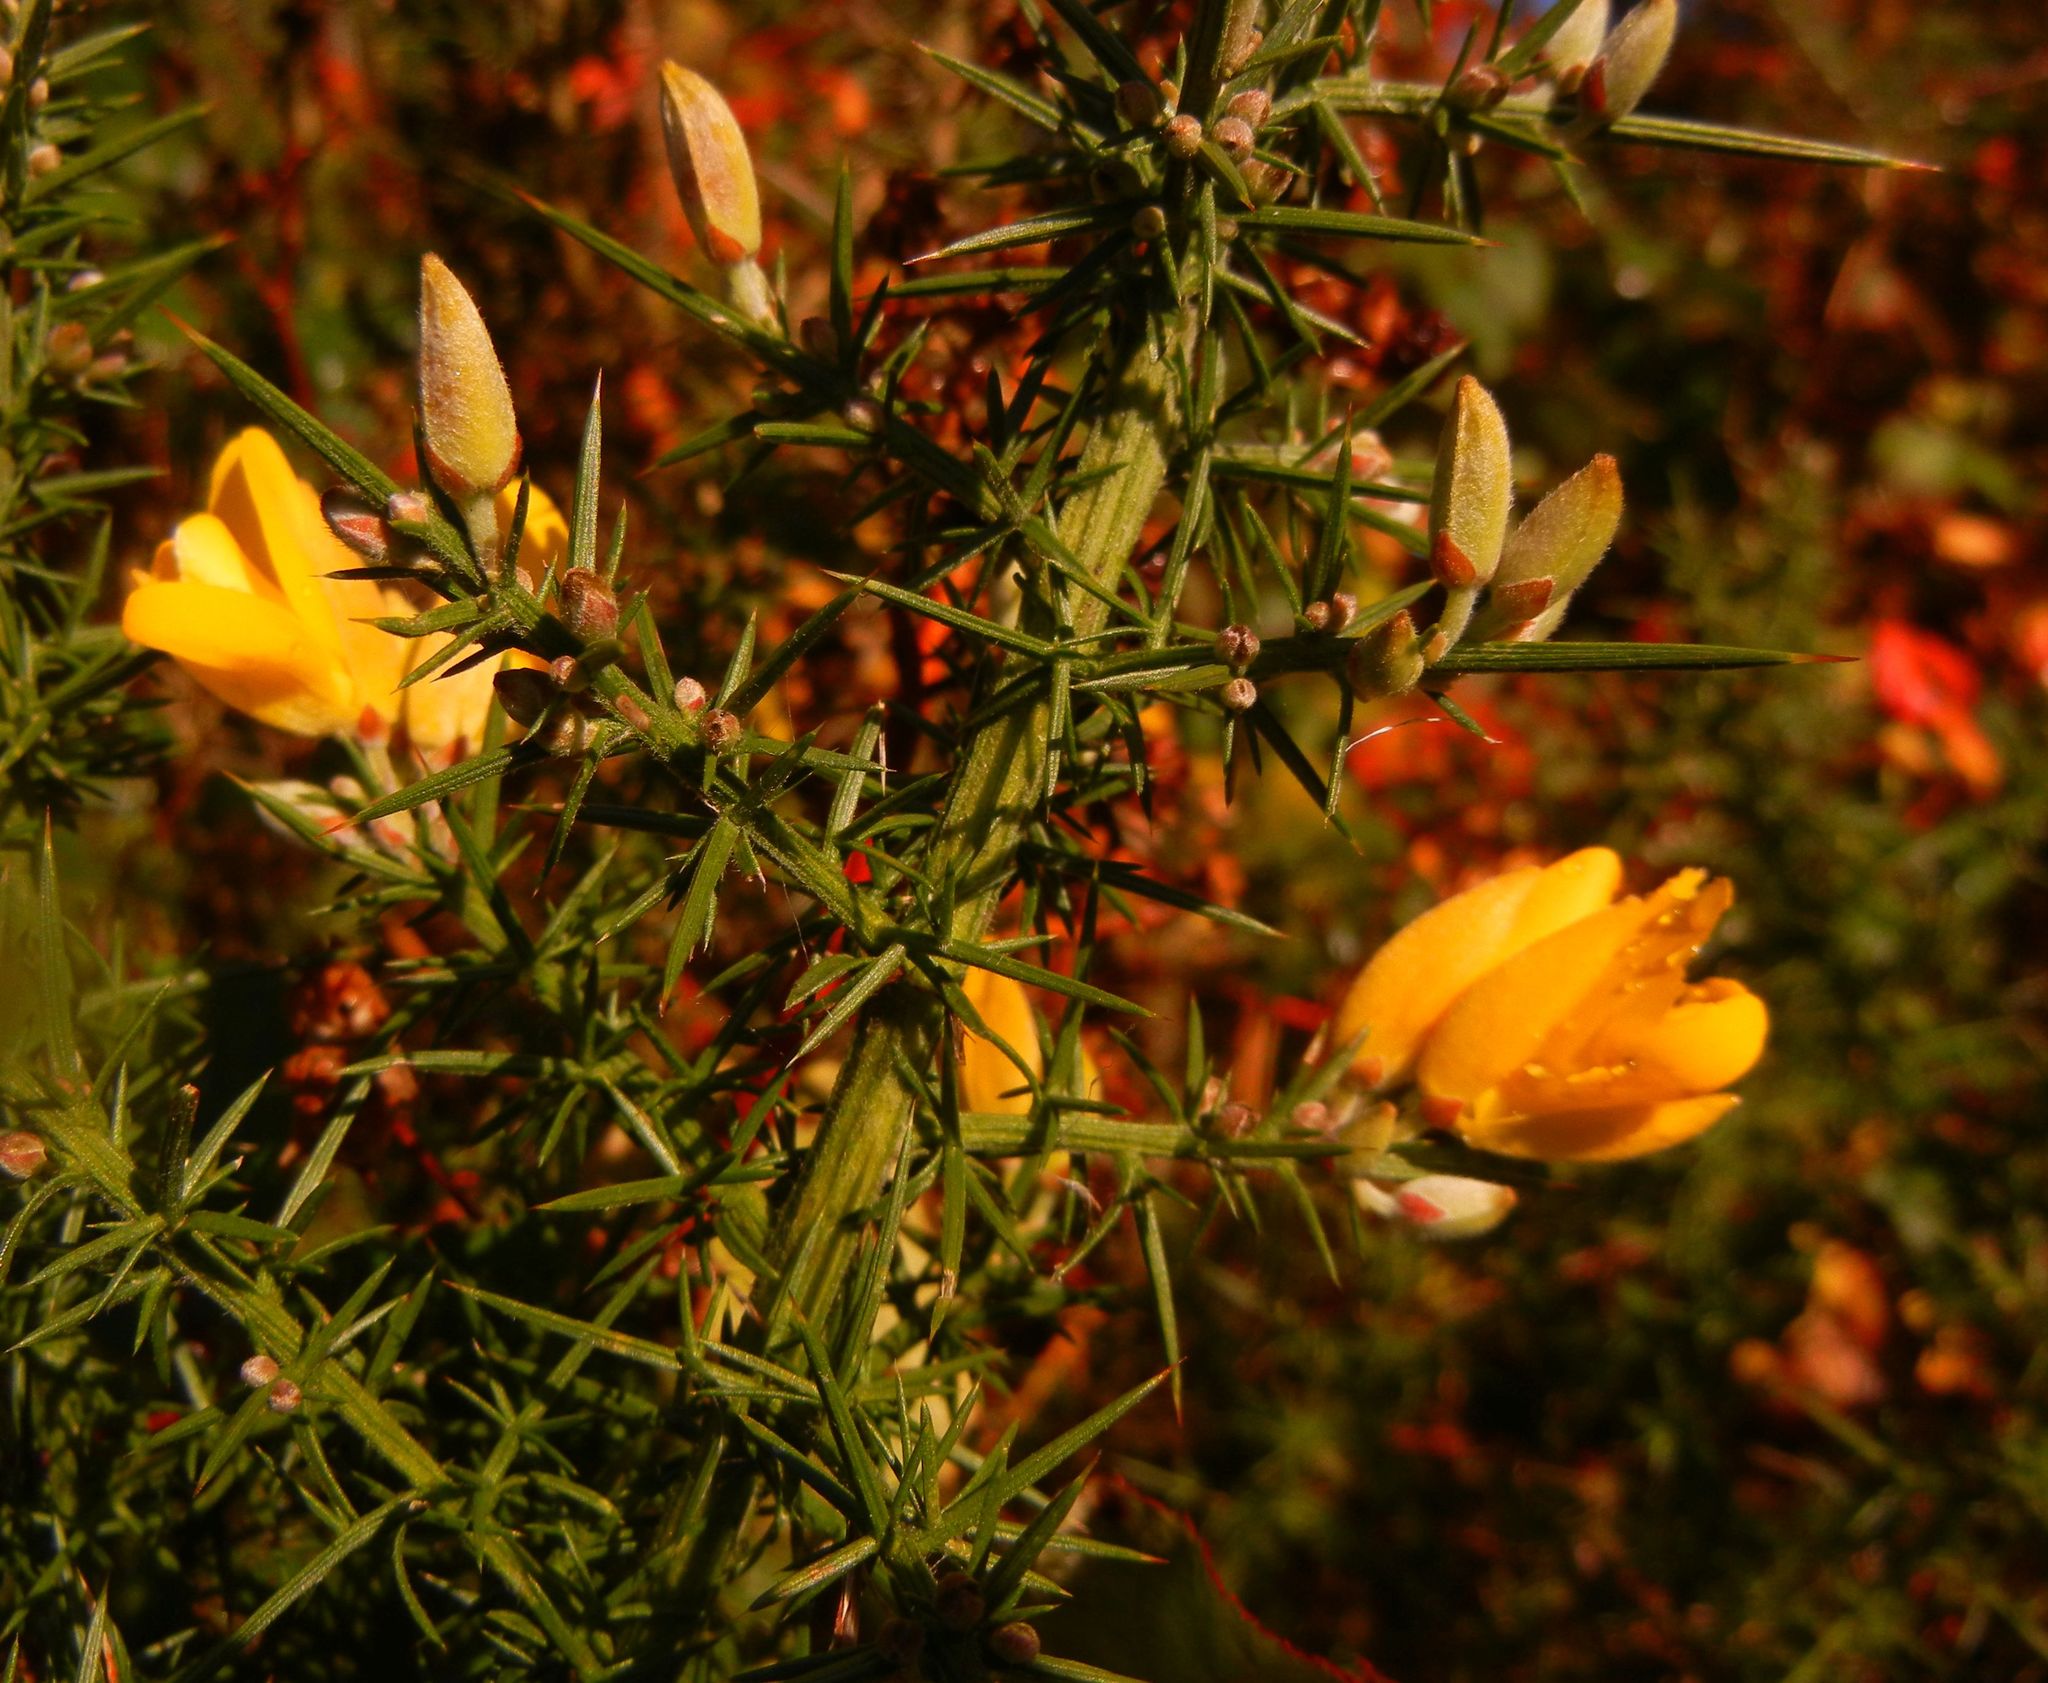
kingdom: Plantae
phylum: Tracheophyta
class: Magnoliopsida
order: Fabales
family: Fabaceae
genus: Ulex
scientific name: Ulex europaeus
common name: Common gorse
